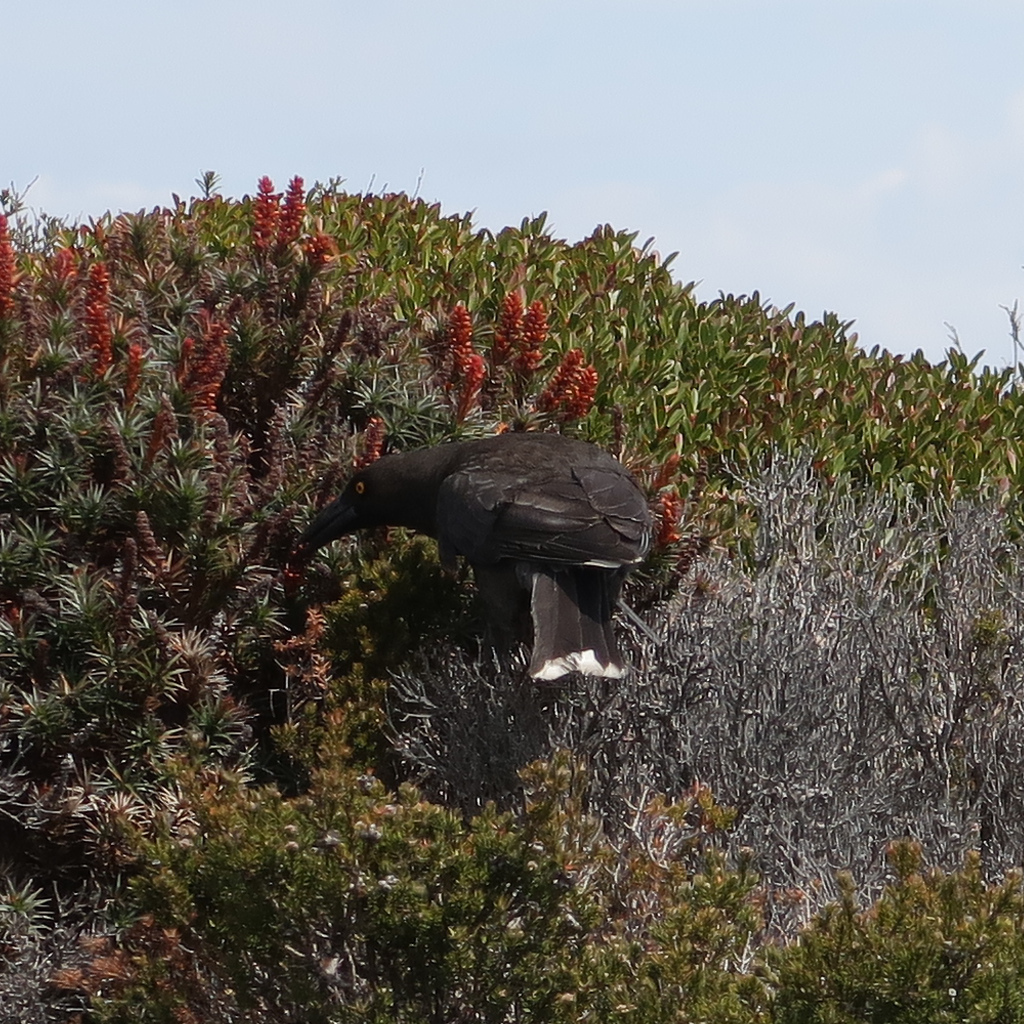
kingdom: Animalia
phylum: Chordata
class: Aves
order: Passeriformes
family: Cracticidae
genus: Strepera
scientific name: Strepera fuliginosa
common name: Black currawong
